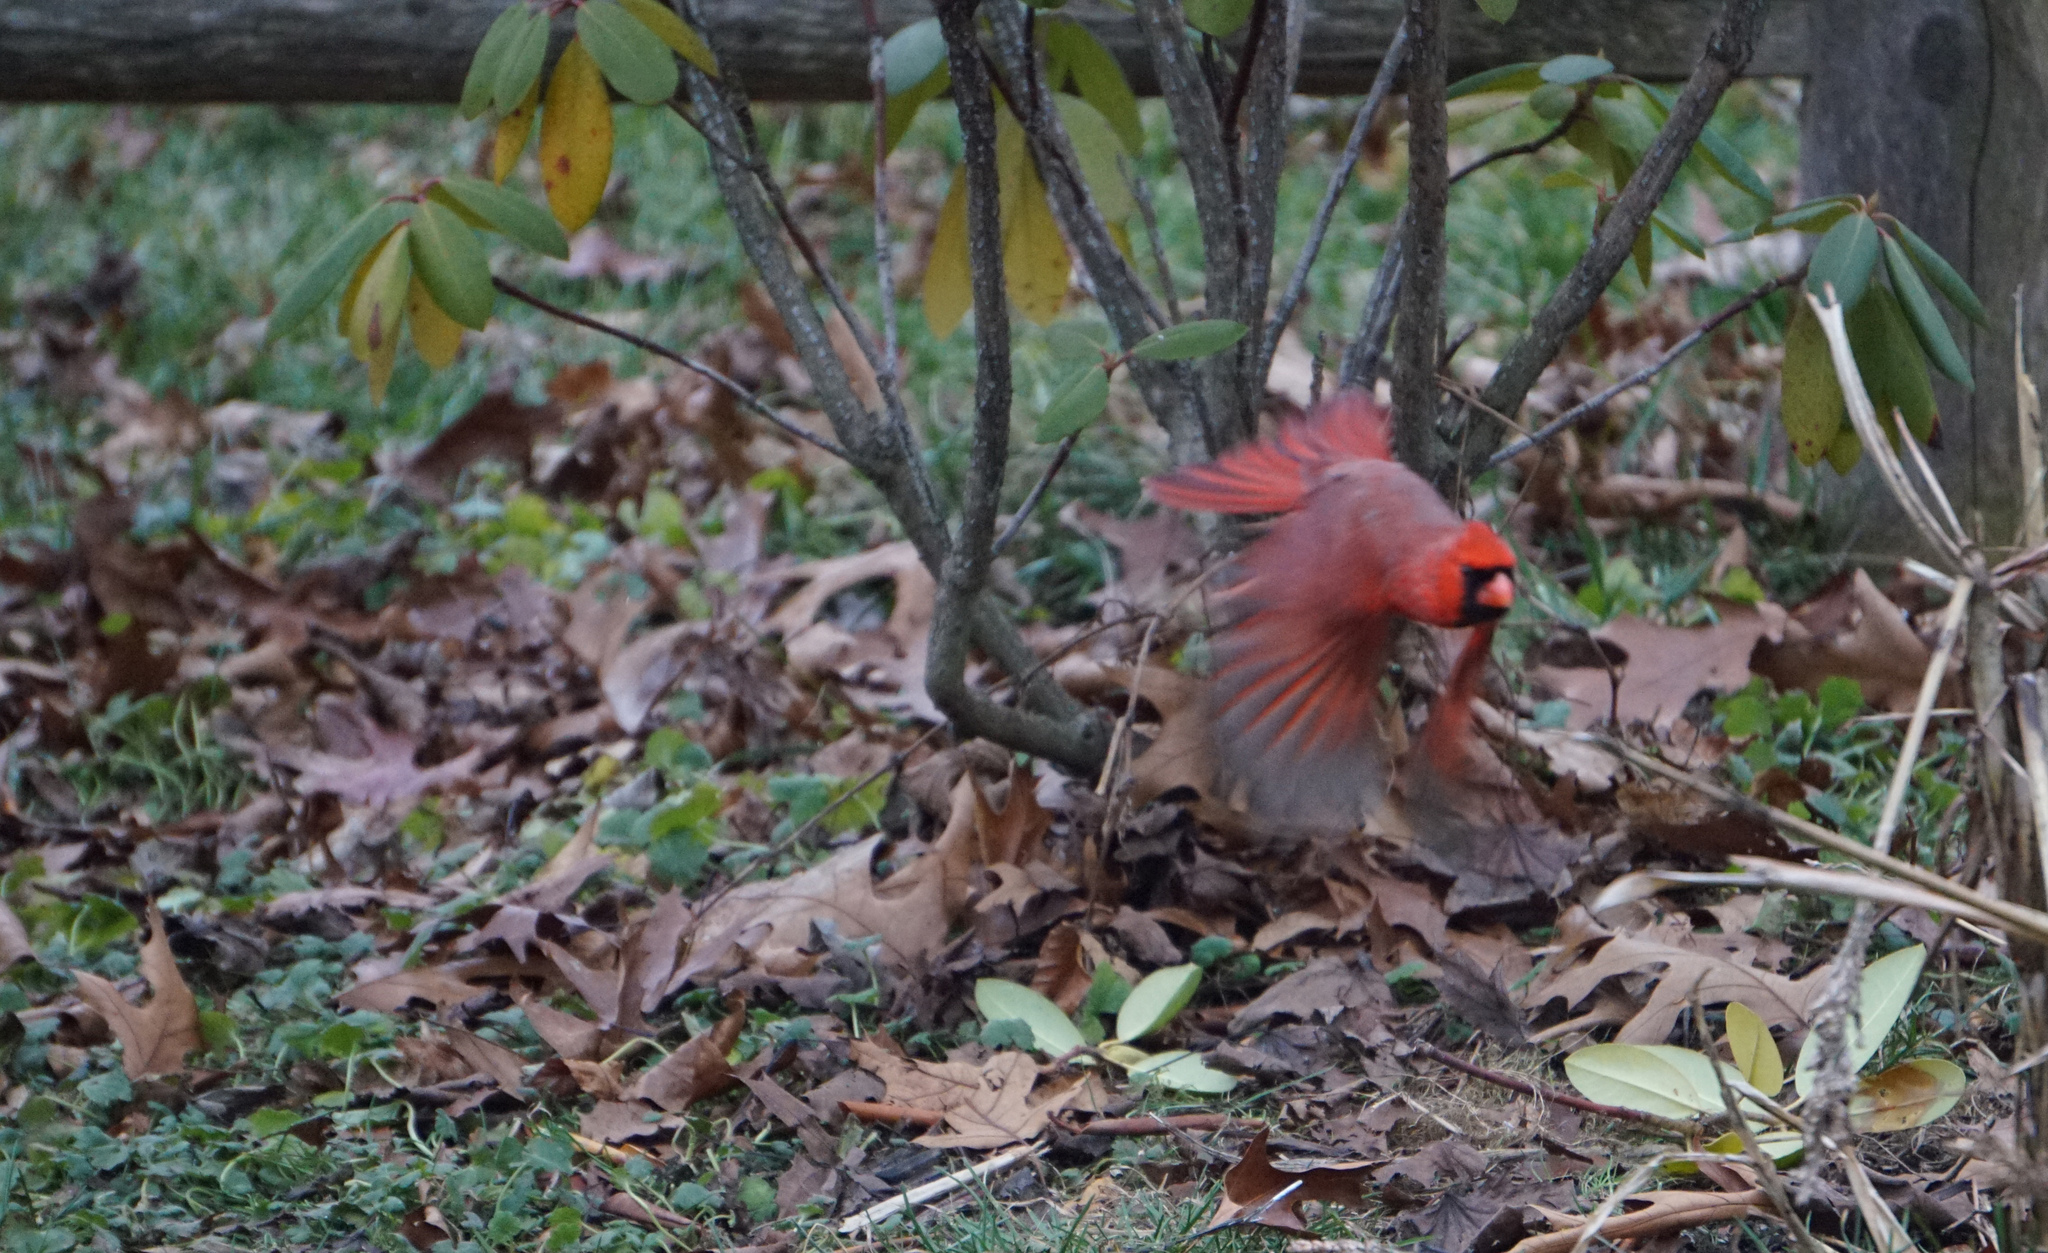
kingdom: Animalia
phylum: Chordata
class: Aves
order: Passeriformes
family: Cardinalidae
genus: Cardinalis
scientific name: Cardinalis cardinalis
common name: Northern cardinal
